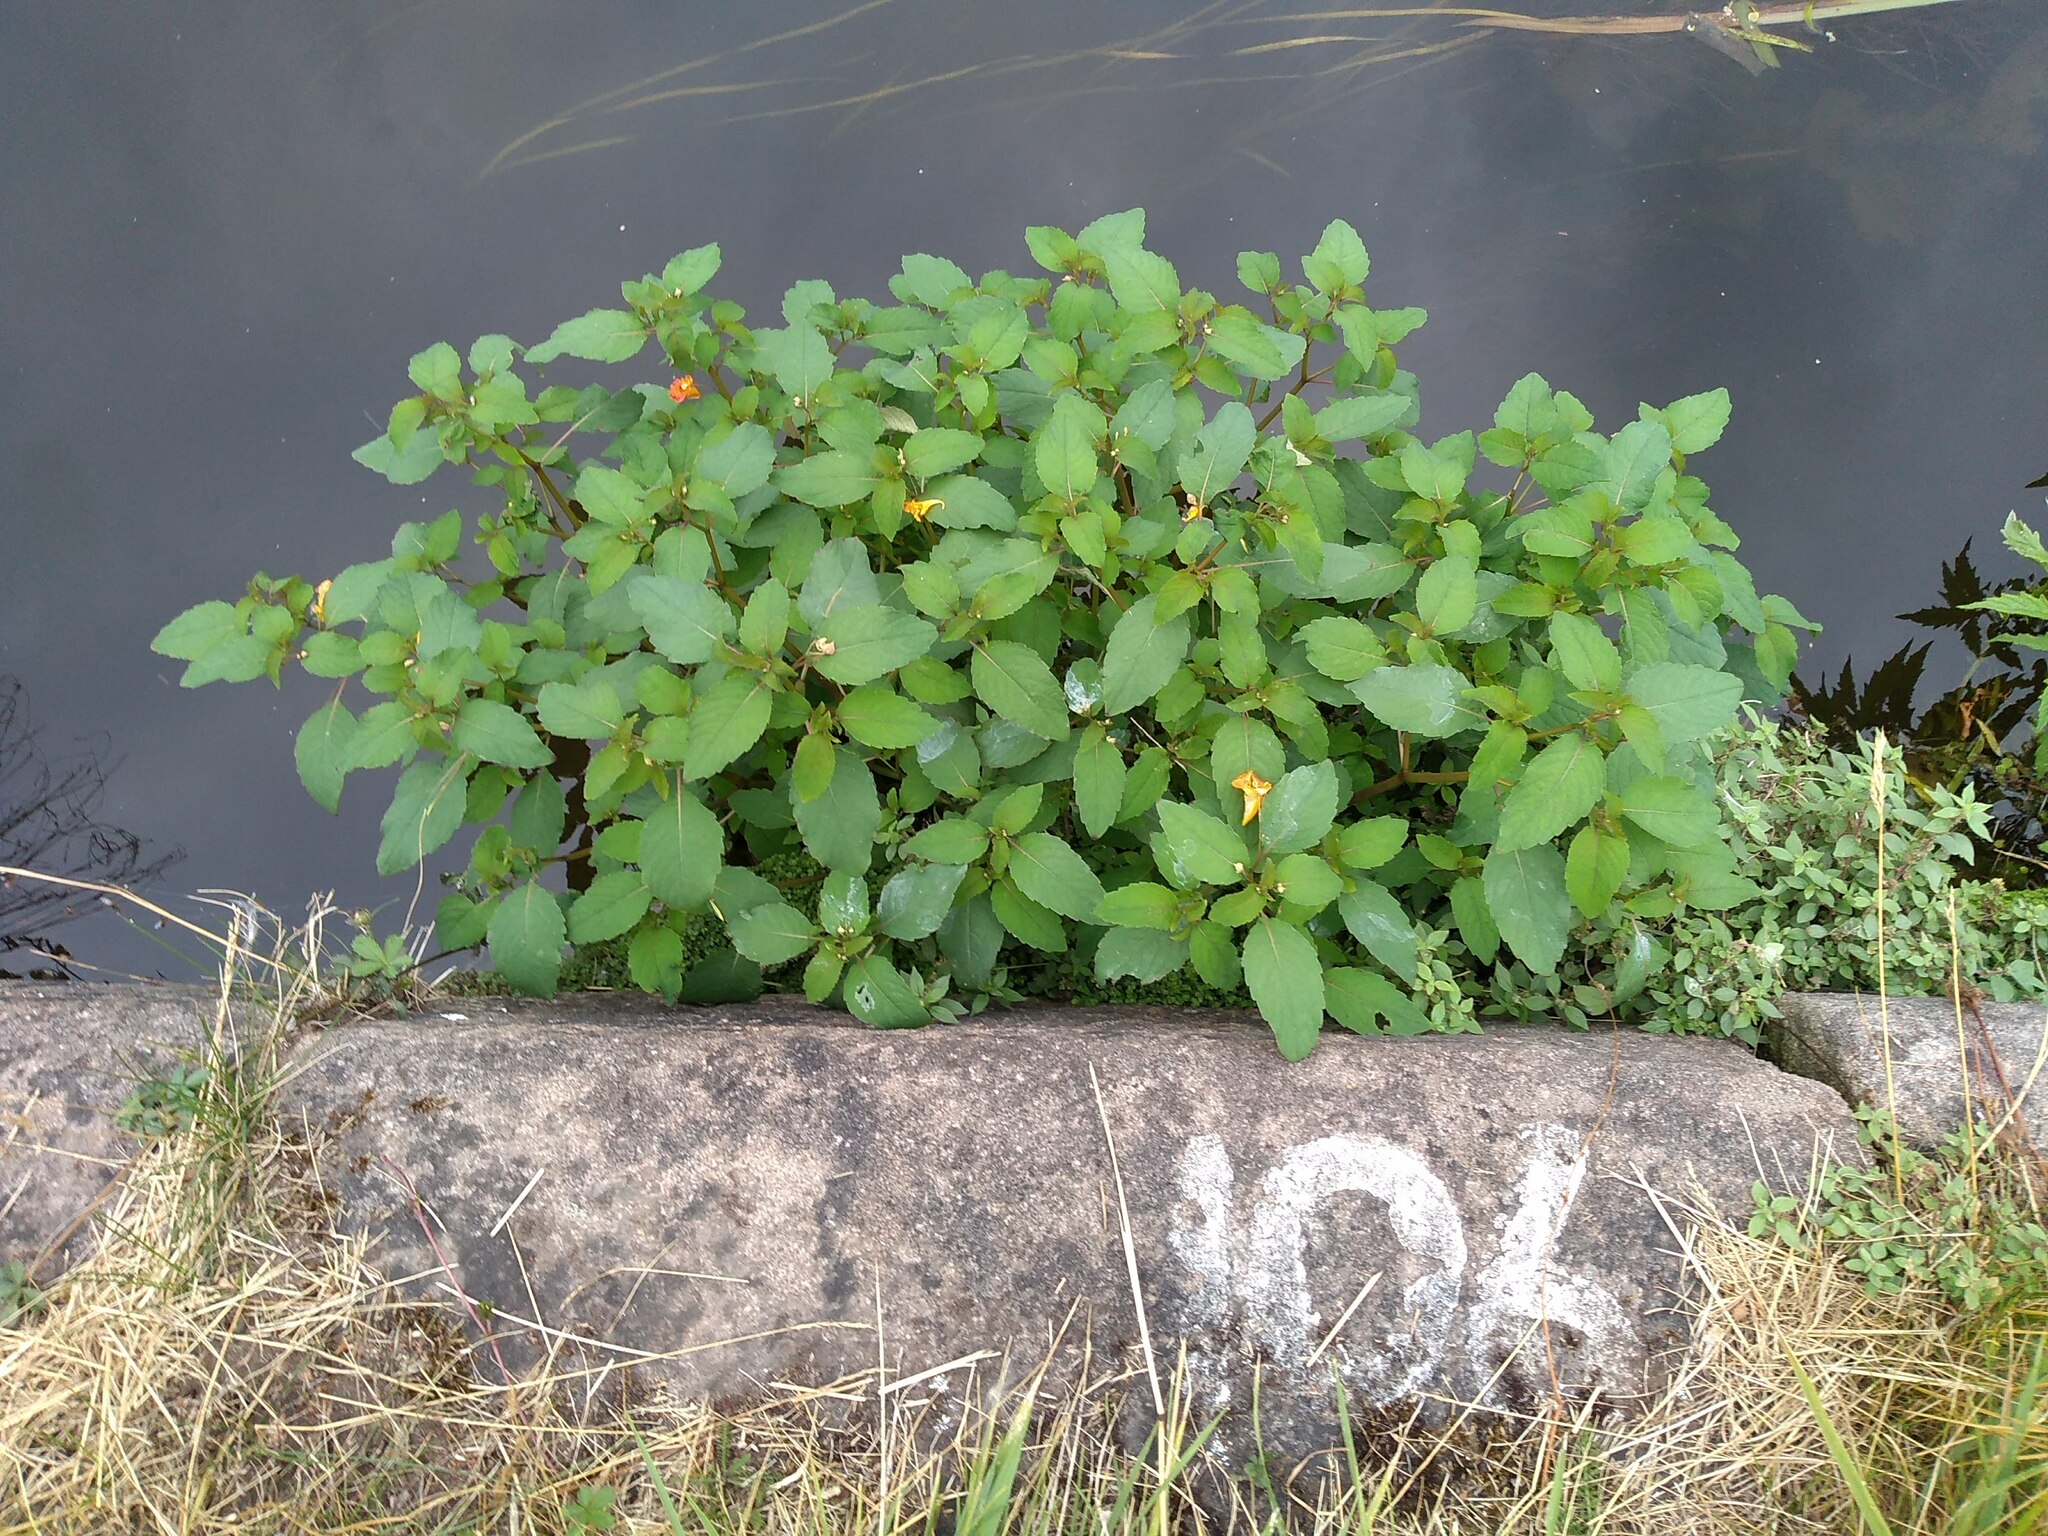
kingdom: Plantae
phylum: Tracheophyta
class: Magnoliopsida
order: Ericales
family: Balsaminaceae
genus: Impatiens
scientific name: Impatiens capensis
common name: Orange balsam
